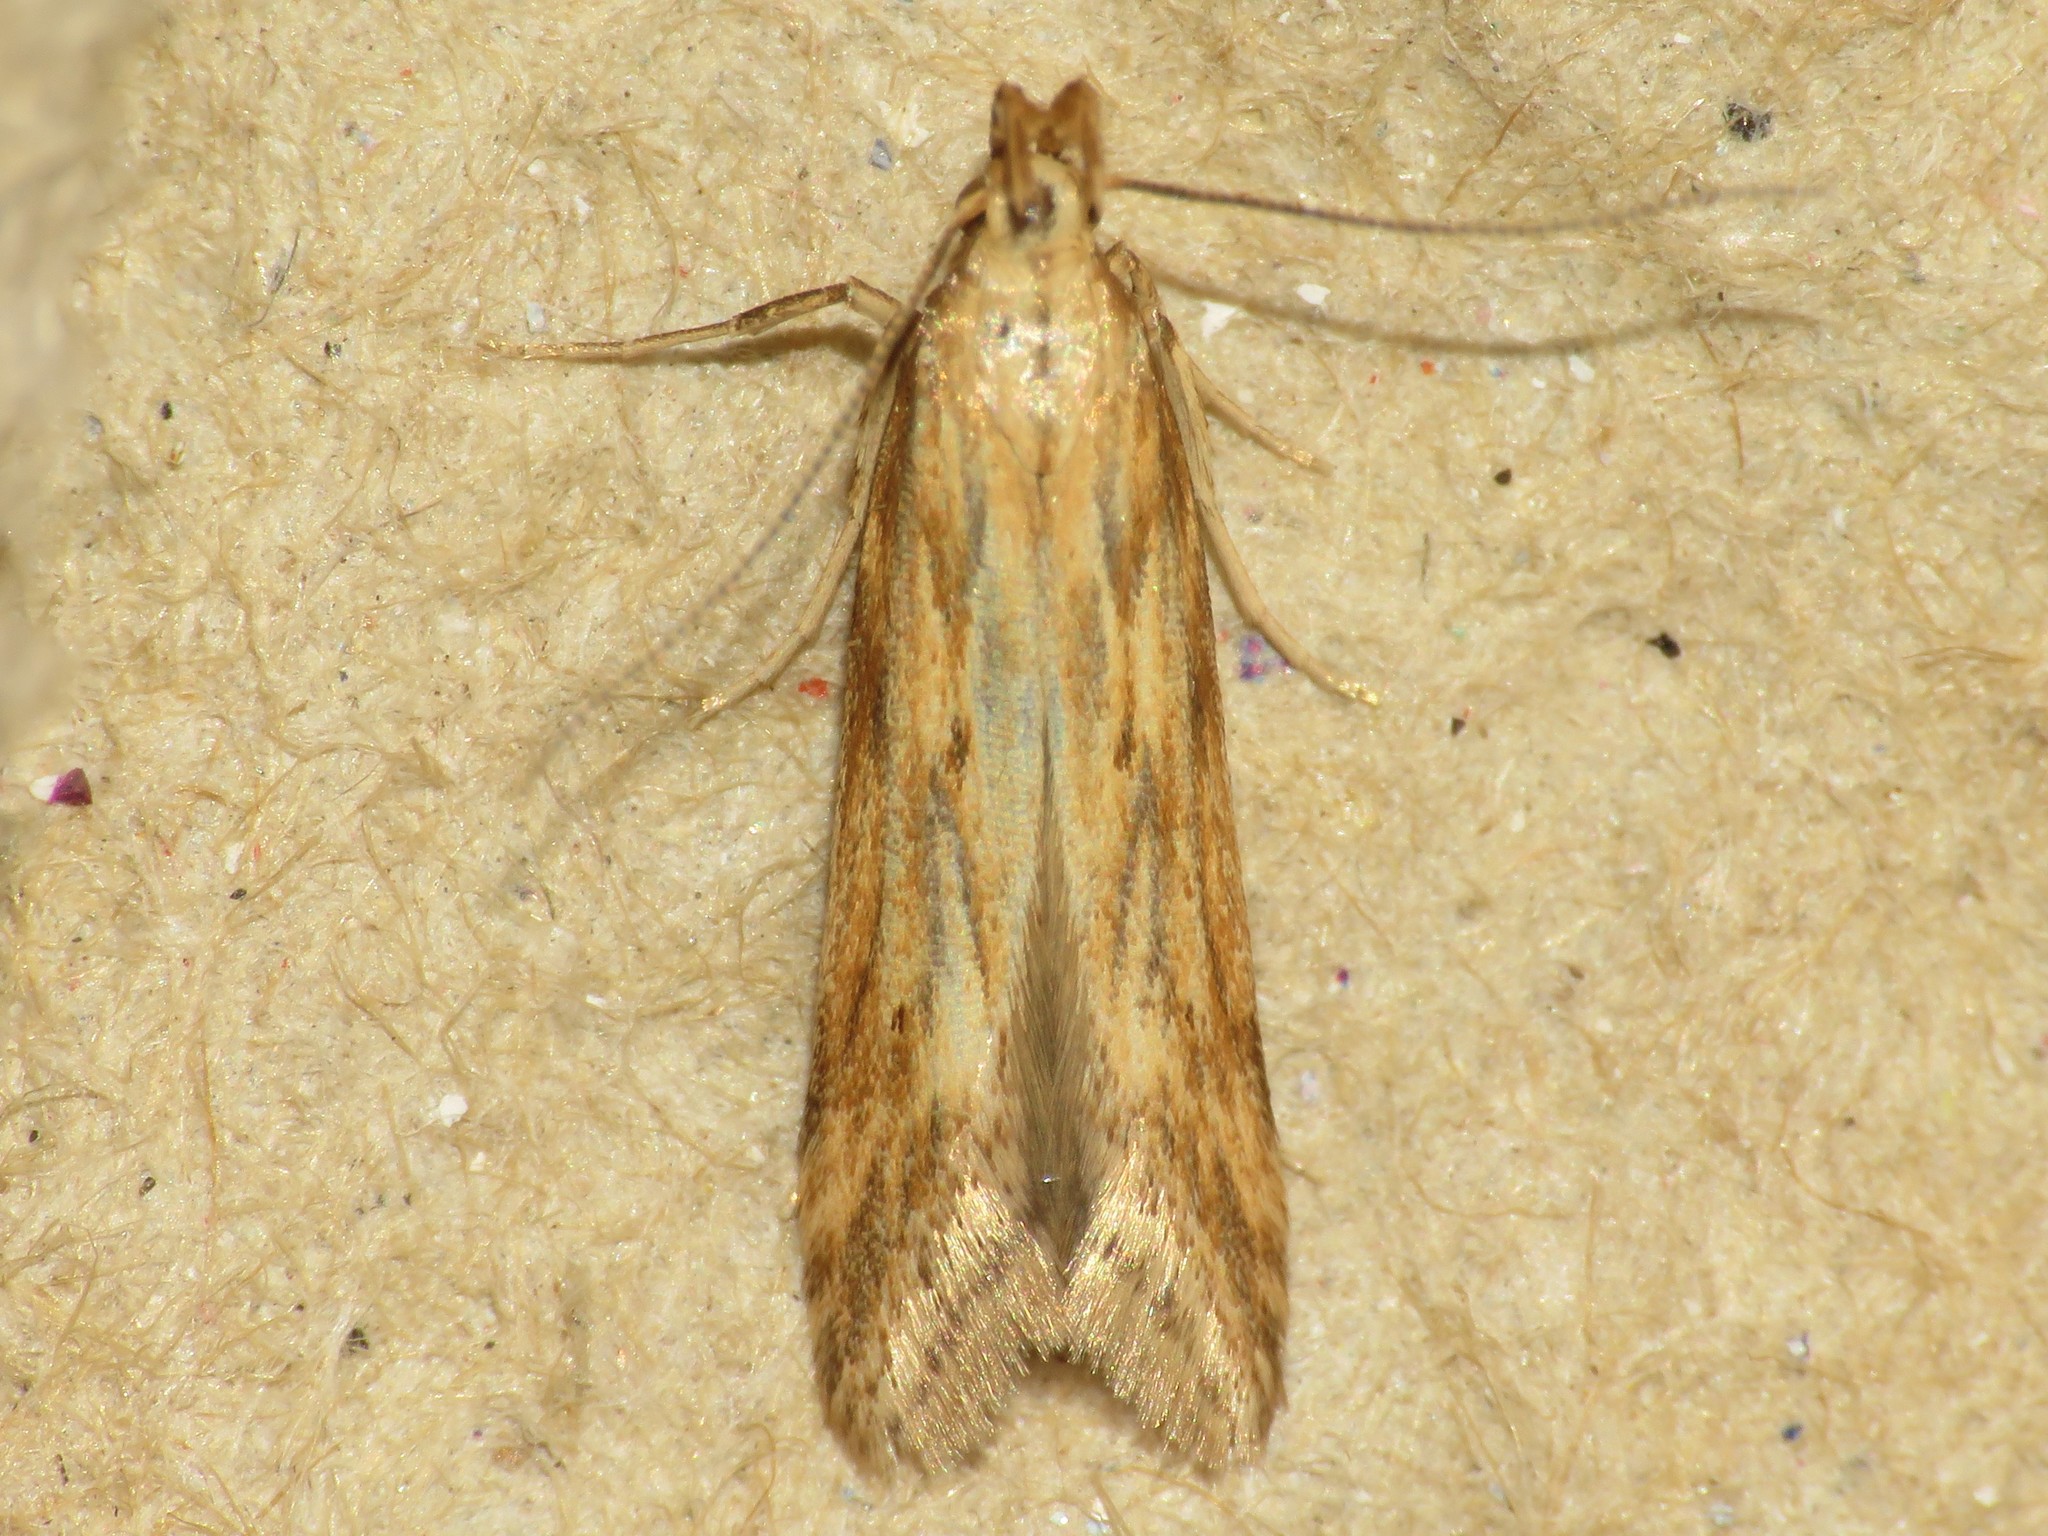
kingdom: Animalia
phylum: Arthropoda
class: Insecta
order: Lepidoptera
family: Gelechiidae
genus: Metzneria
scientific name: Metzneria lappella
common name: Burdock neb
